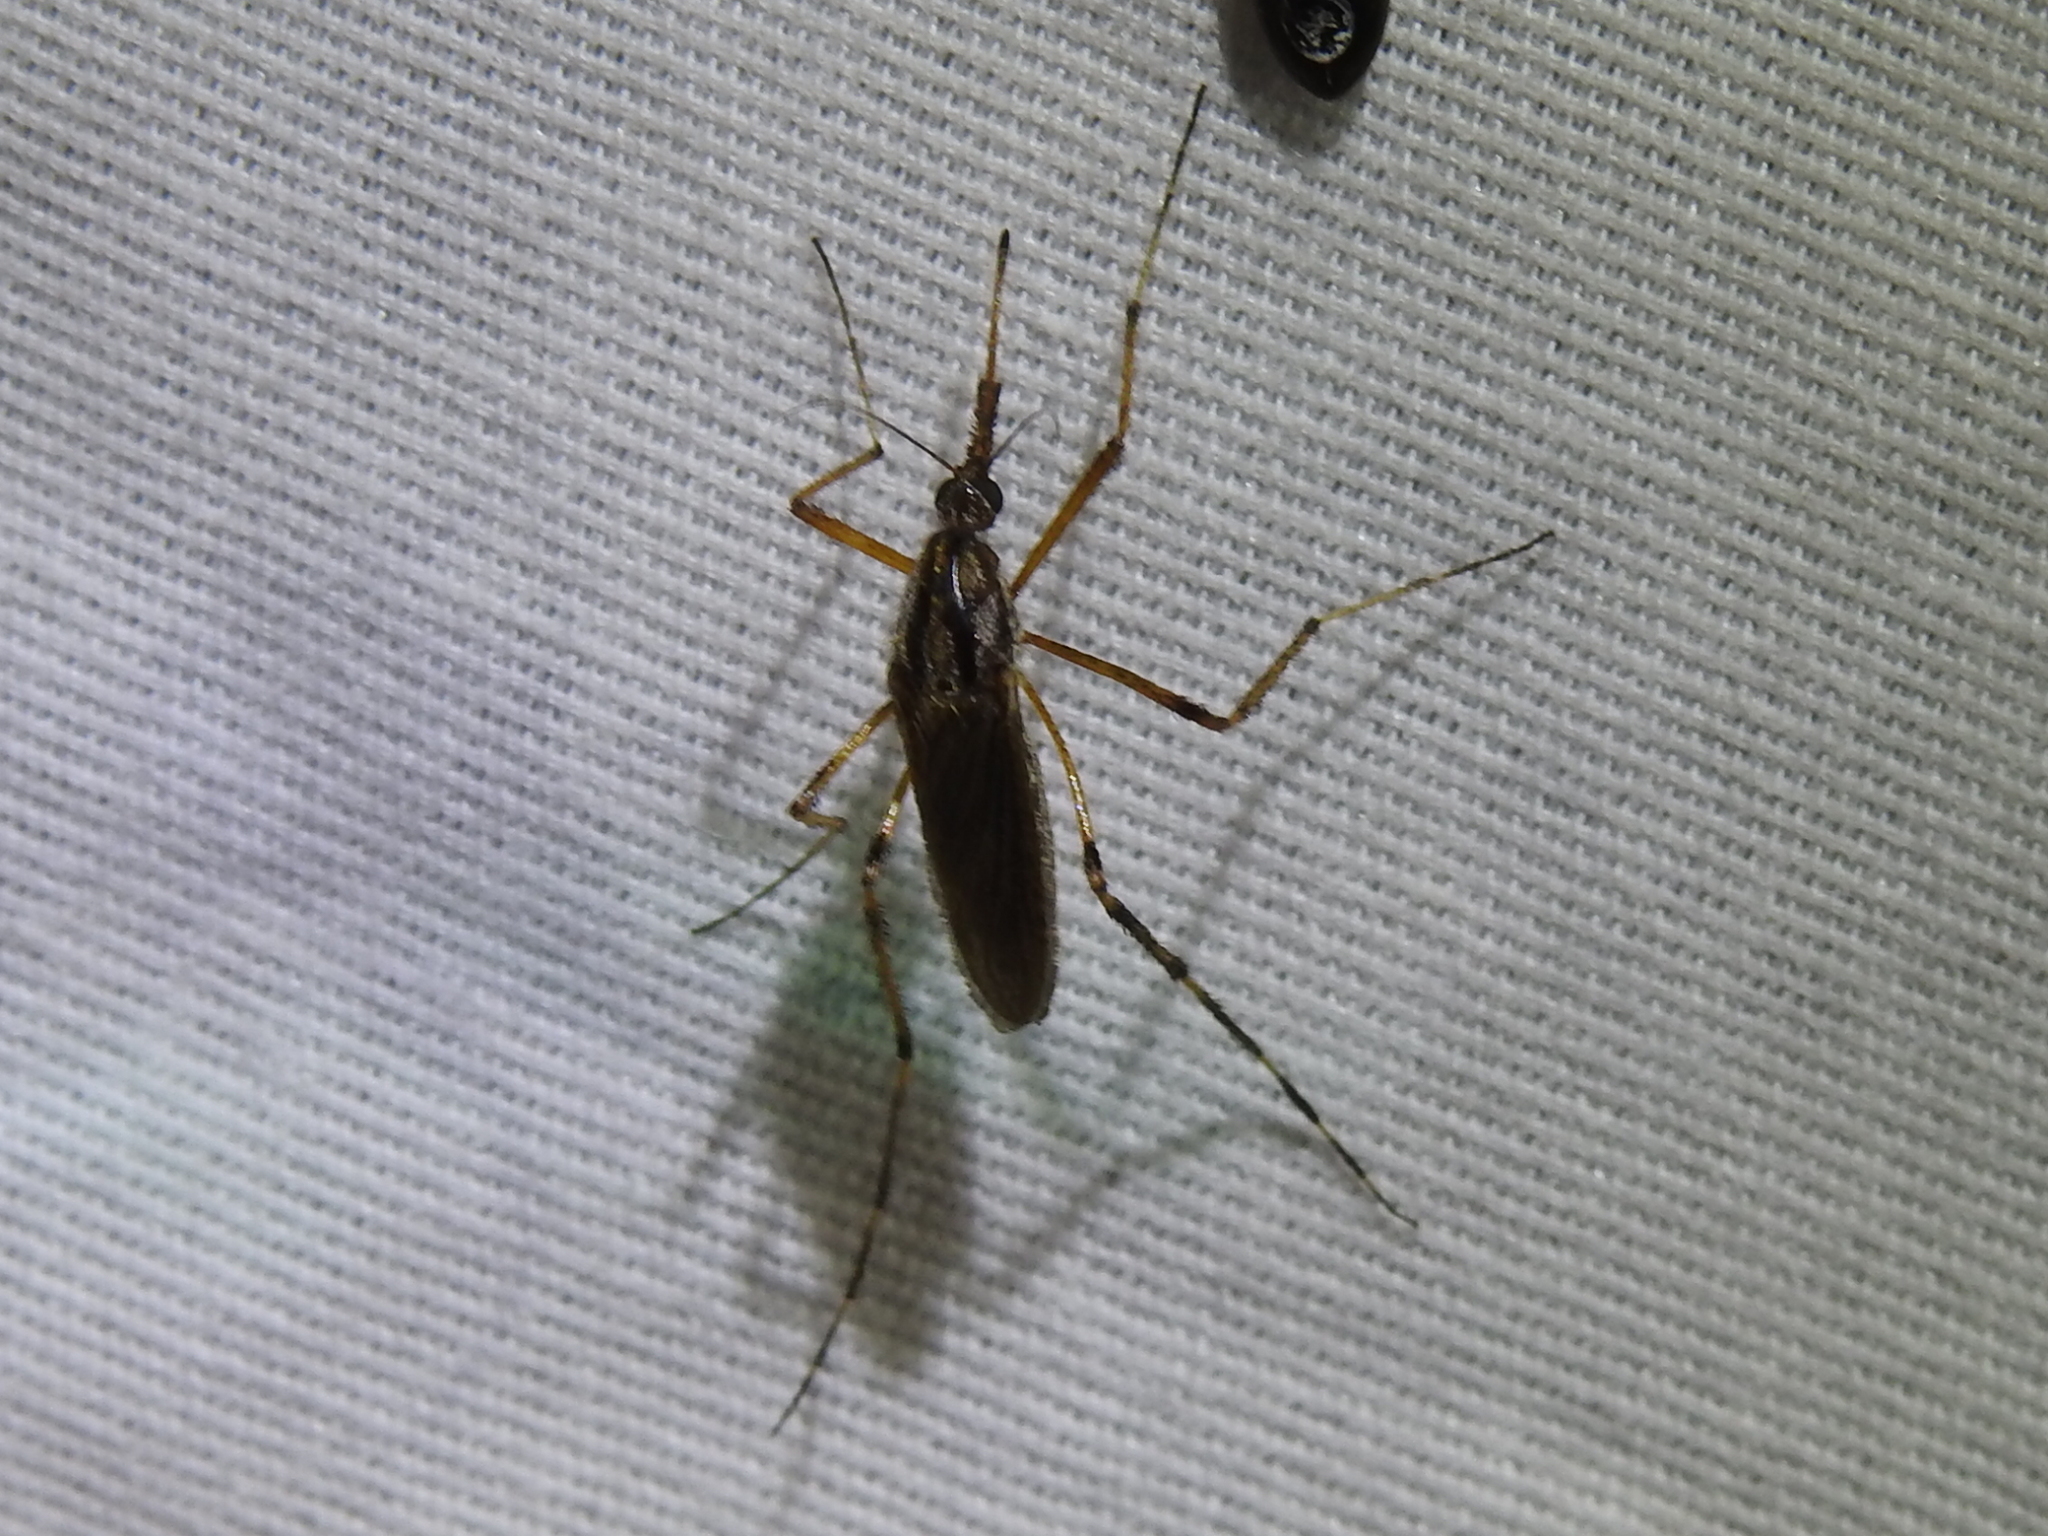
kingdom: Animalia
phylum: Arthropoda
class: Insecta
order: Diptera
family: Culicidae
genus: Psorophora
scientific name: Psorophora ciliata
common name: Gallinipper
